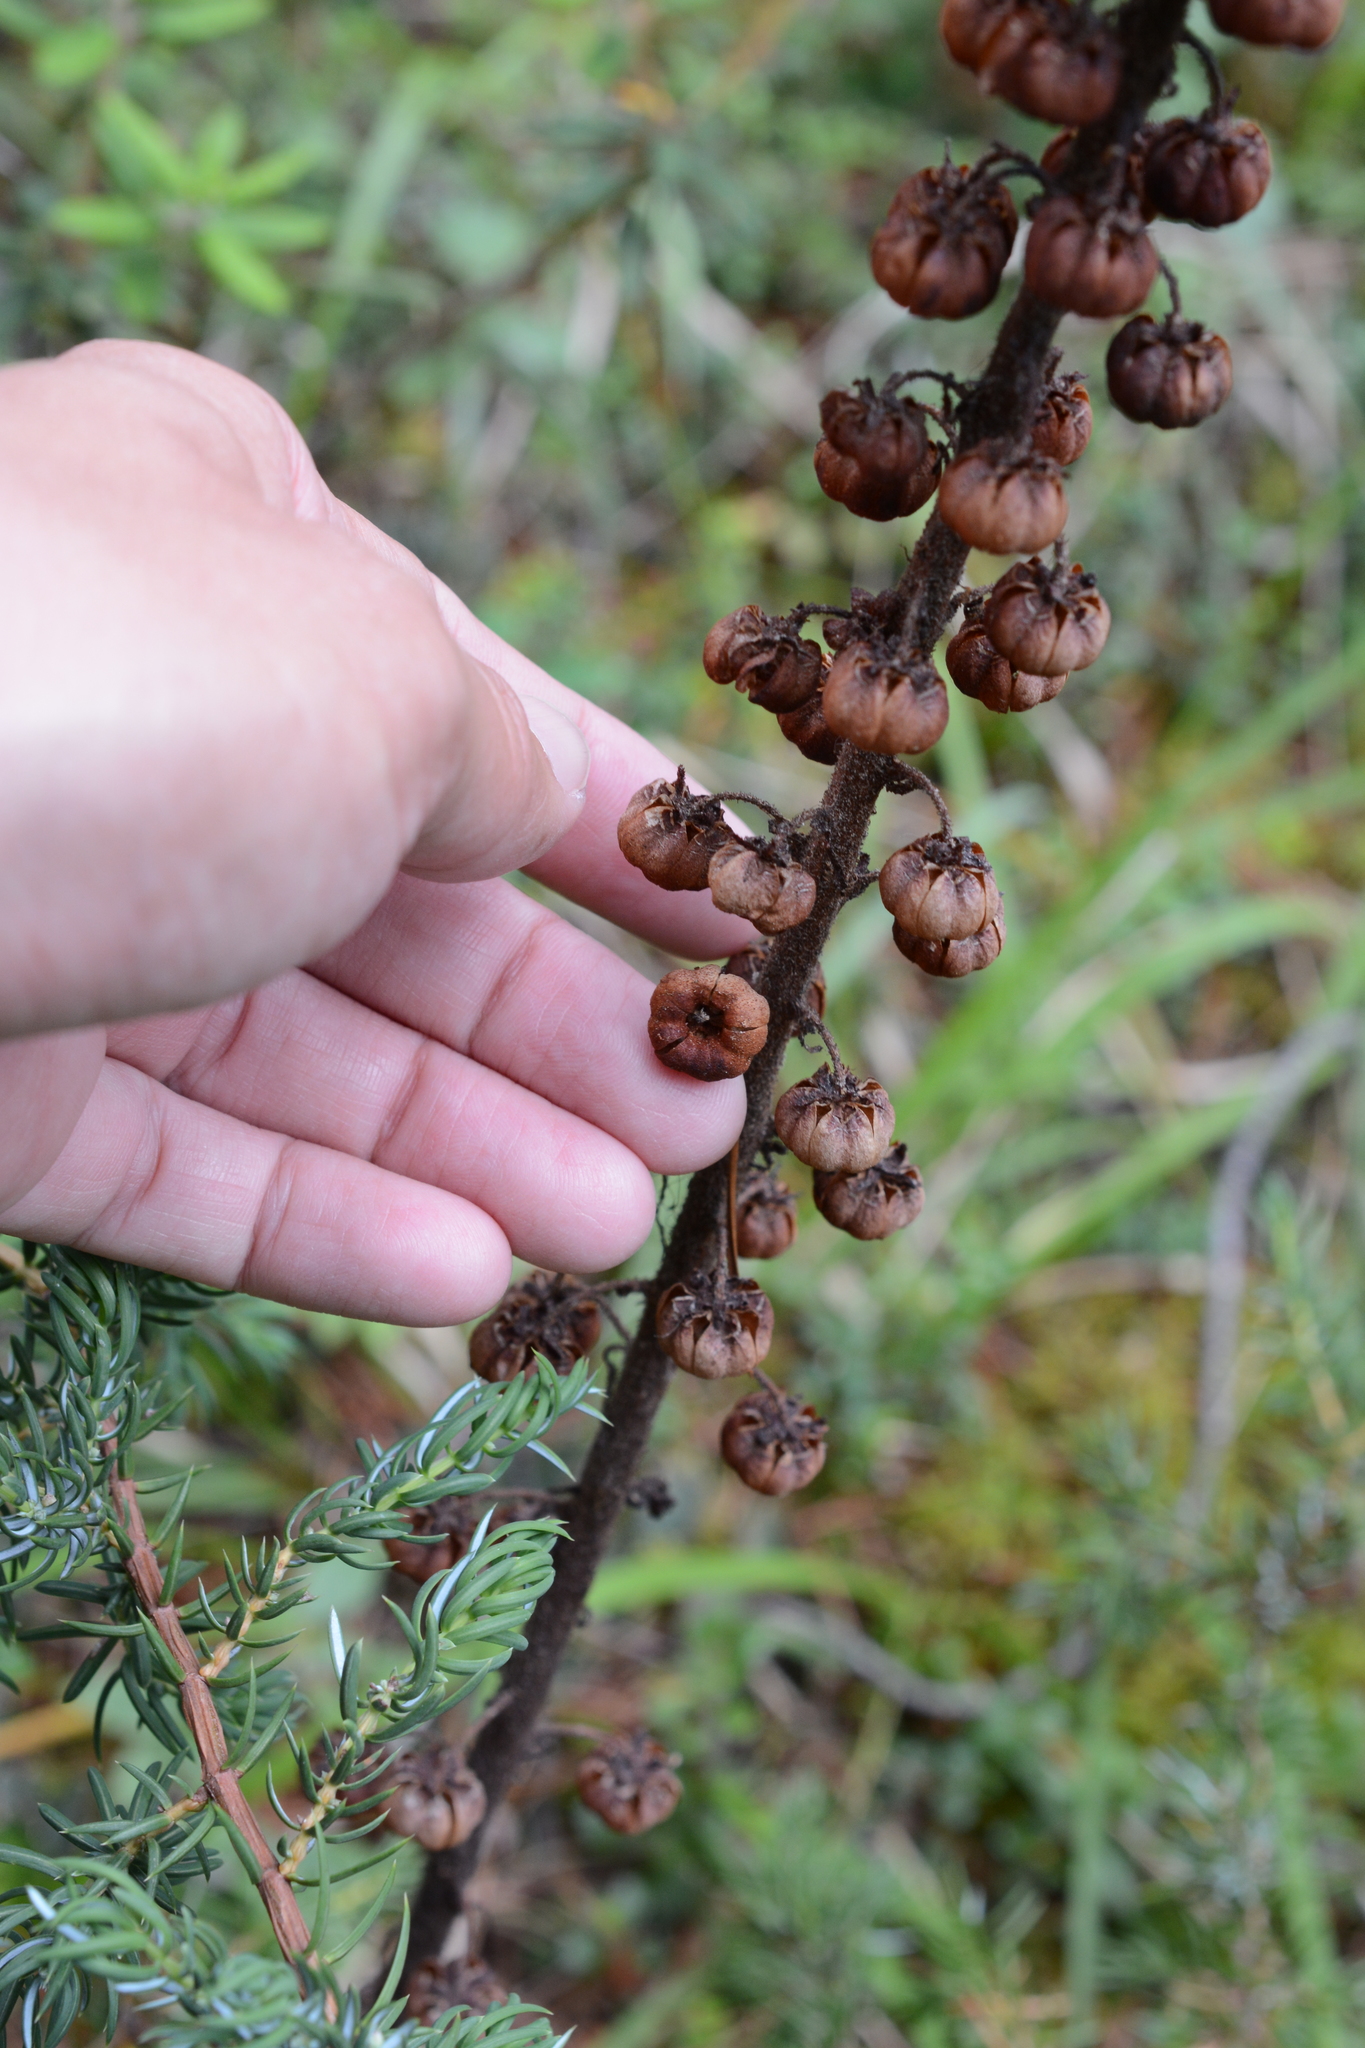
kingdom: Plantae
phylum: Tracheophyta
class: Magnoliopsida
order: Ericales
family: Ericaceae
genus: Pterospora
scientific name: Pterospora andromedea
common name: Giant bird's-nest
